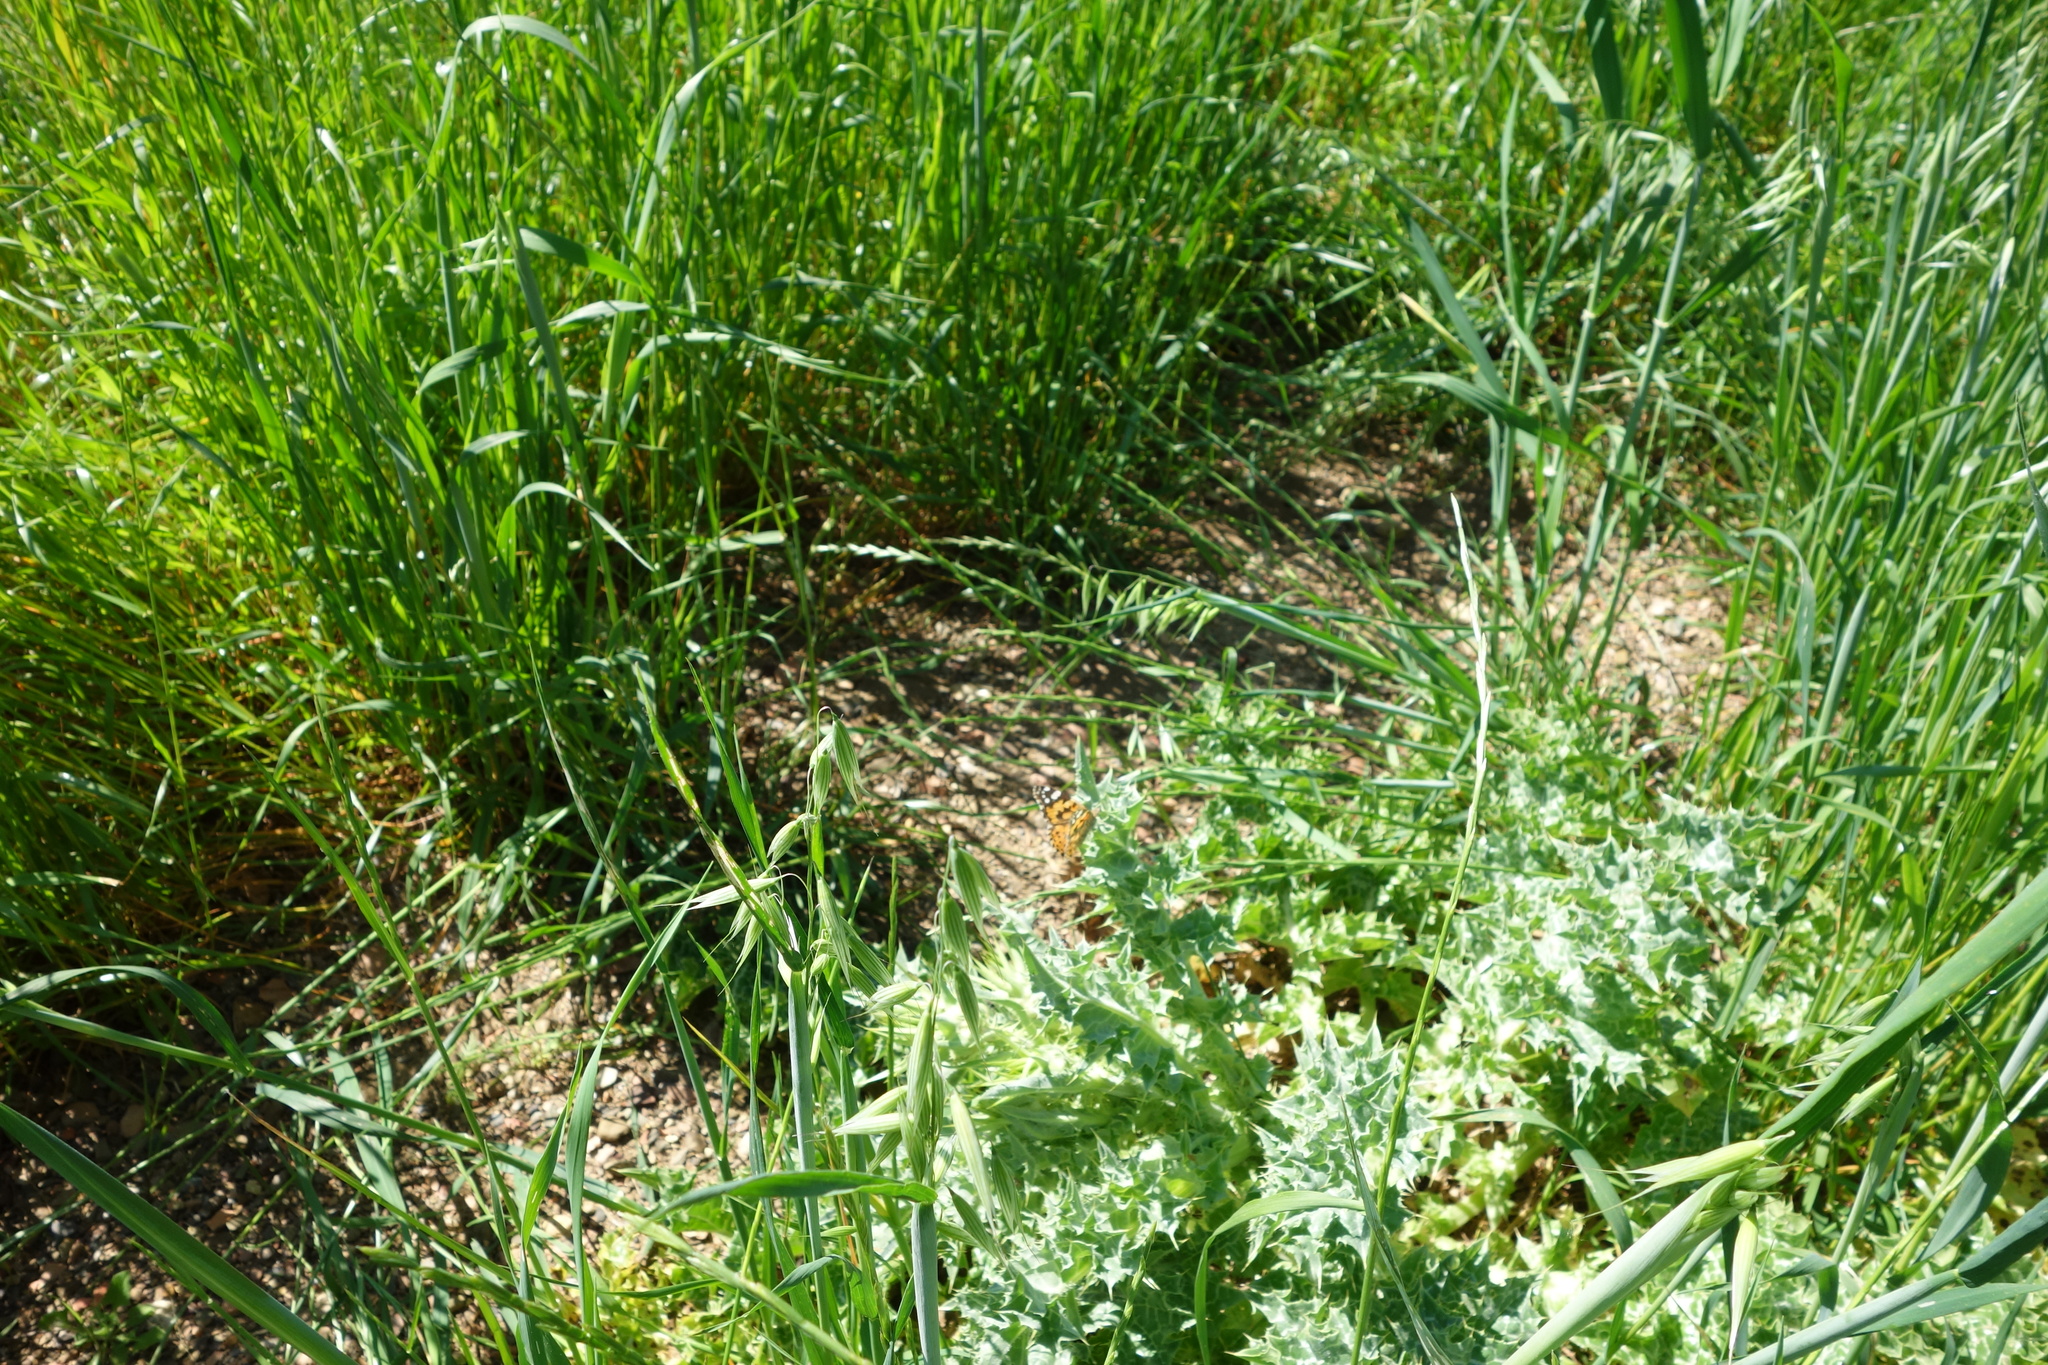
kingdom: Animalia
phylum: Arthropoda
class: Insecta
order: Lepidoptera
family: Nymphalidae
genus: Vanessa
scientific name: Vanessa cardui
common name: Painted lady
